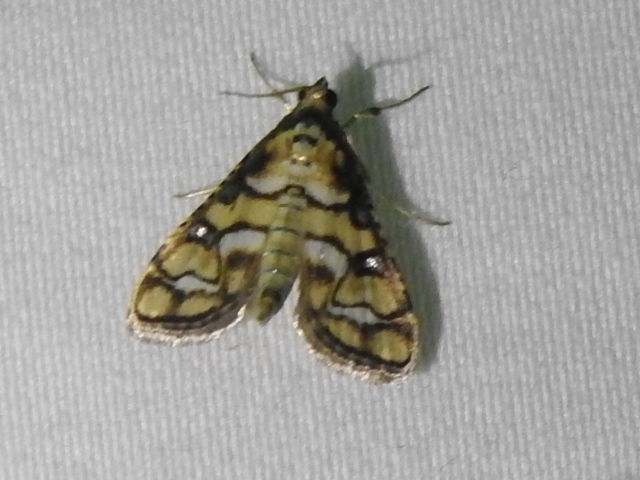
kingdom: Animalia
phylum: Arthropoda
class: Insecta
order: Lepidoptera
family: Crambidae
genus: Hileithia
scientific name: Hileithia magualis
